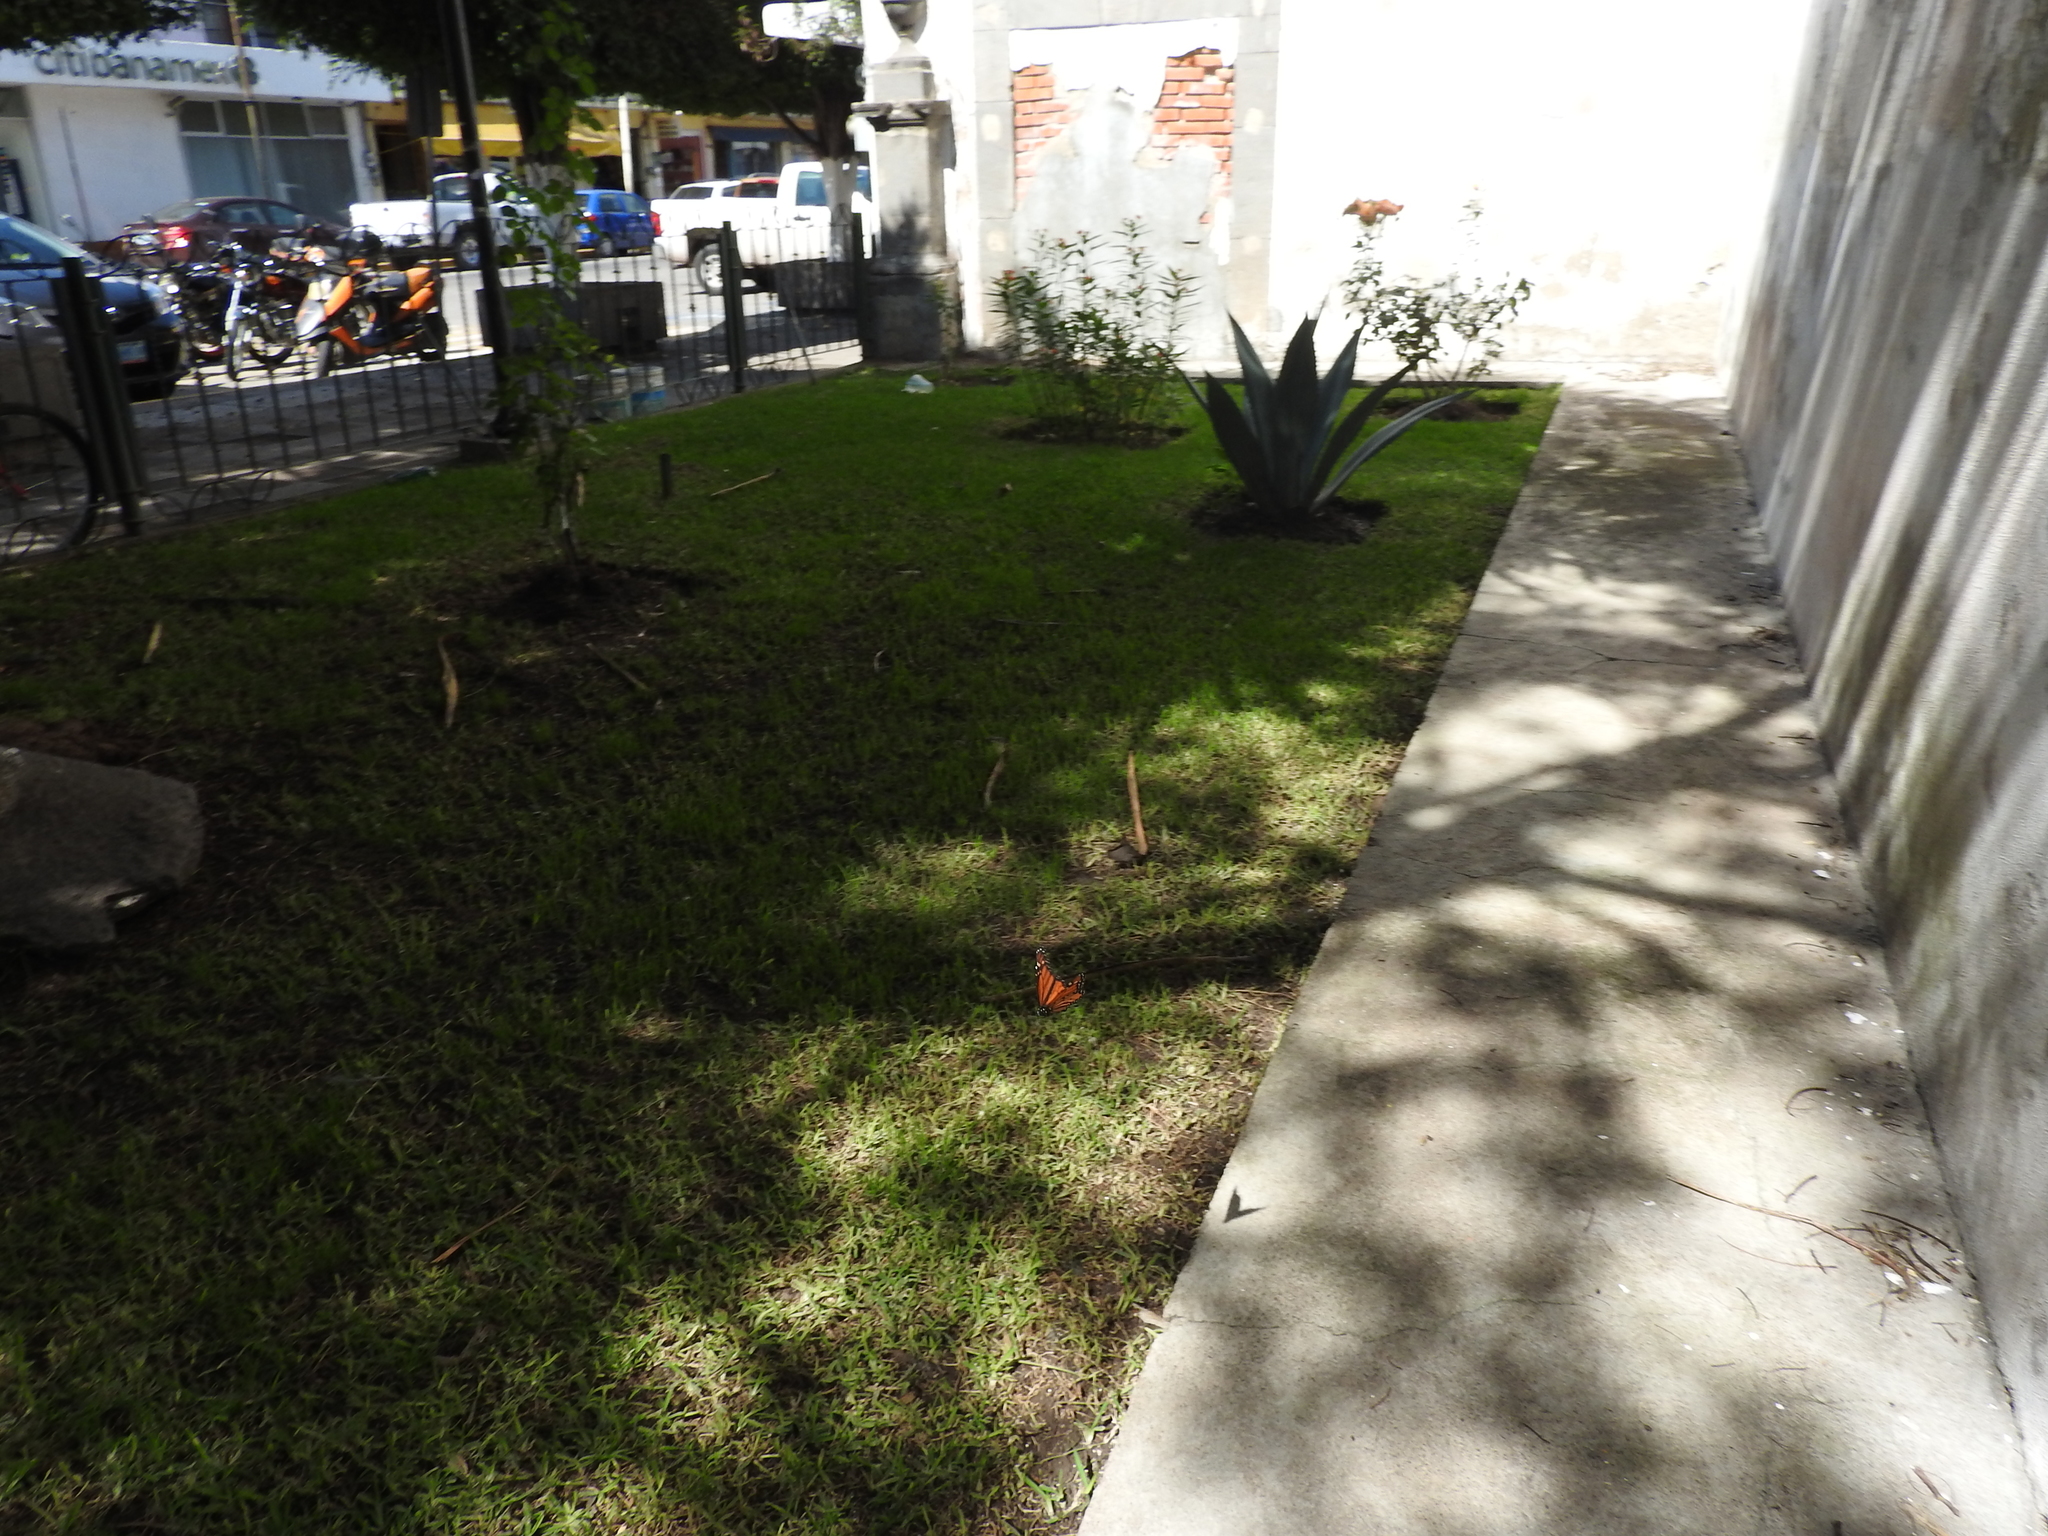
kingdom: Animalia
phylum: Arthropoda
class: Insecta
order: Lepidoptera
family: Nymphalidae
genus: Danaus
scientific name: Danaus plexippus
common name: Monarch
